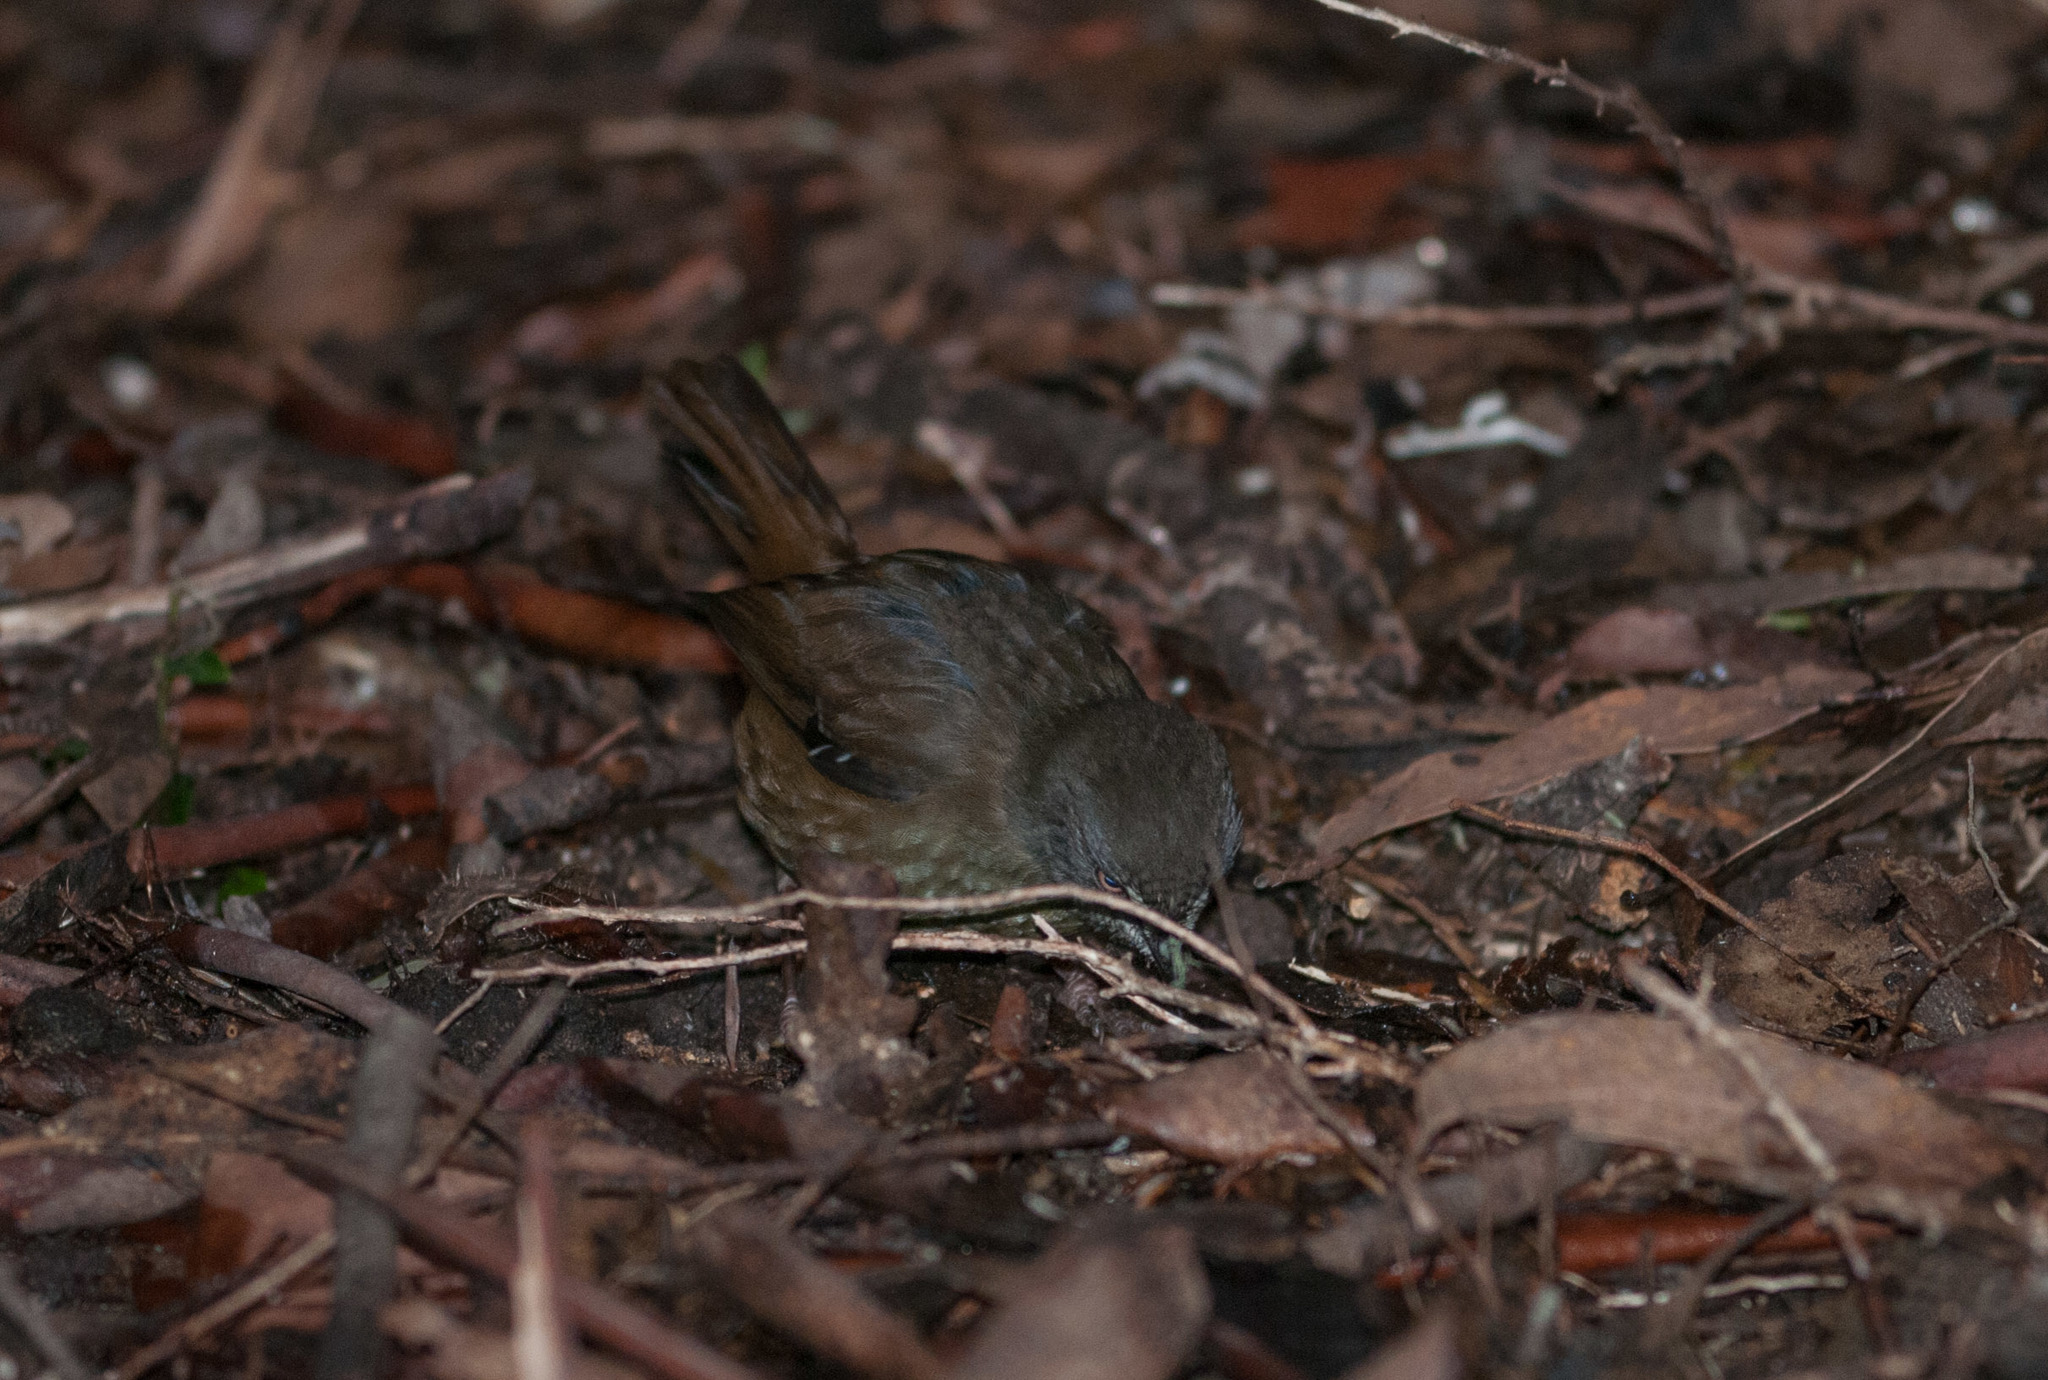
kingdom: Animalia
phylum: Chordata
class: Aves
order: Passeriformes
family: Acanthizidae
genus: Sericornis
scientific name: Sericornis humilis
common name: Tasmanian scrubwren
